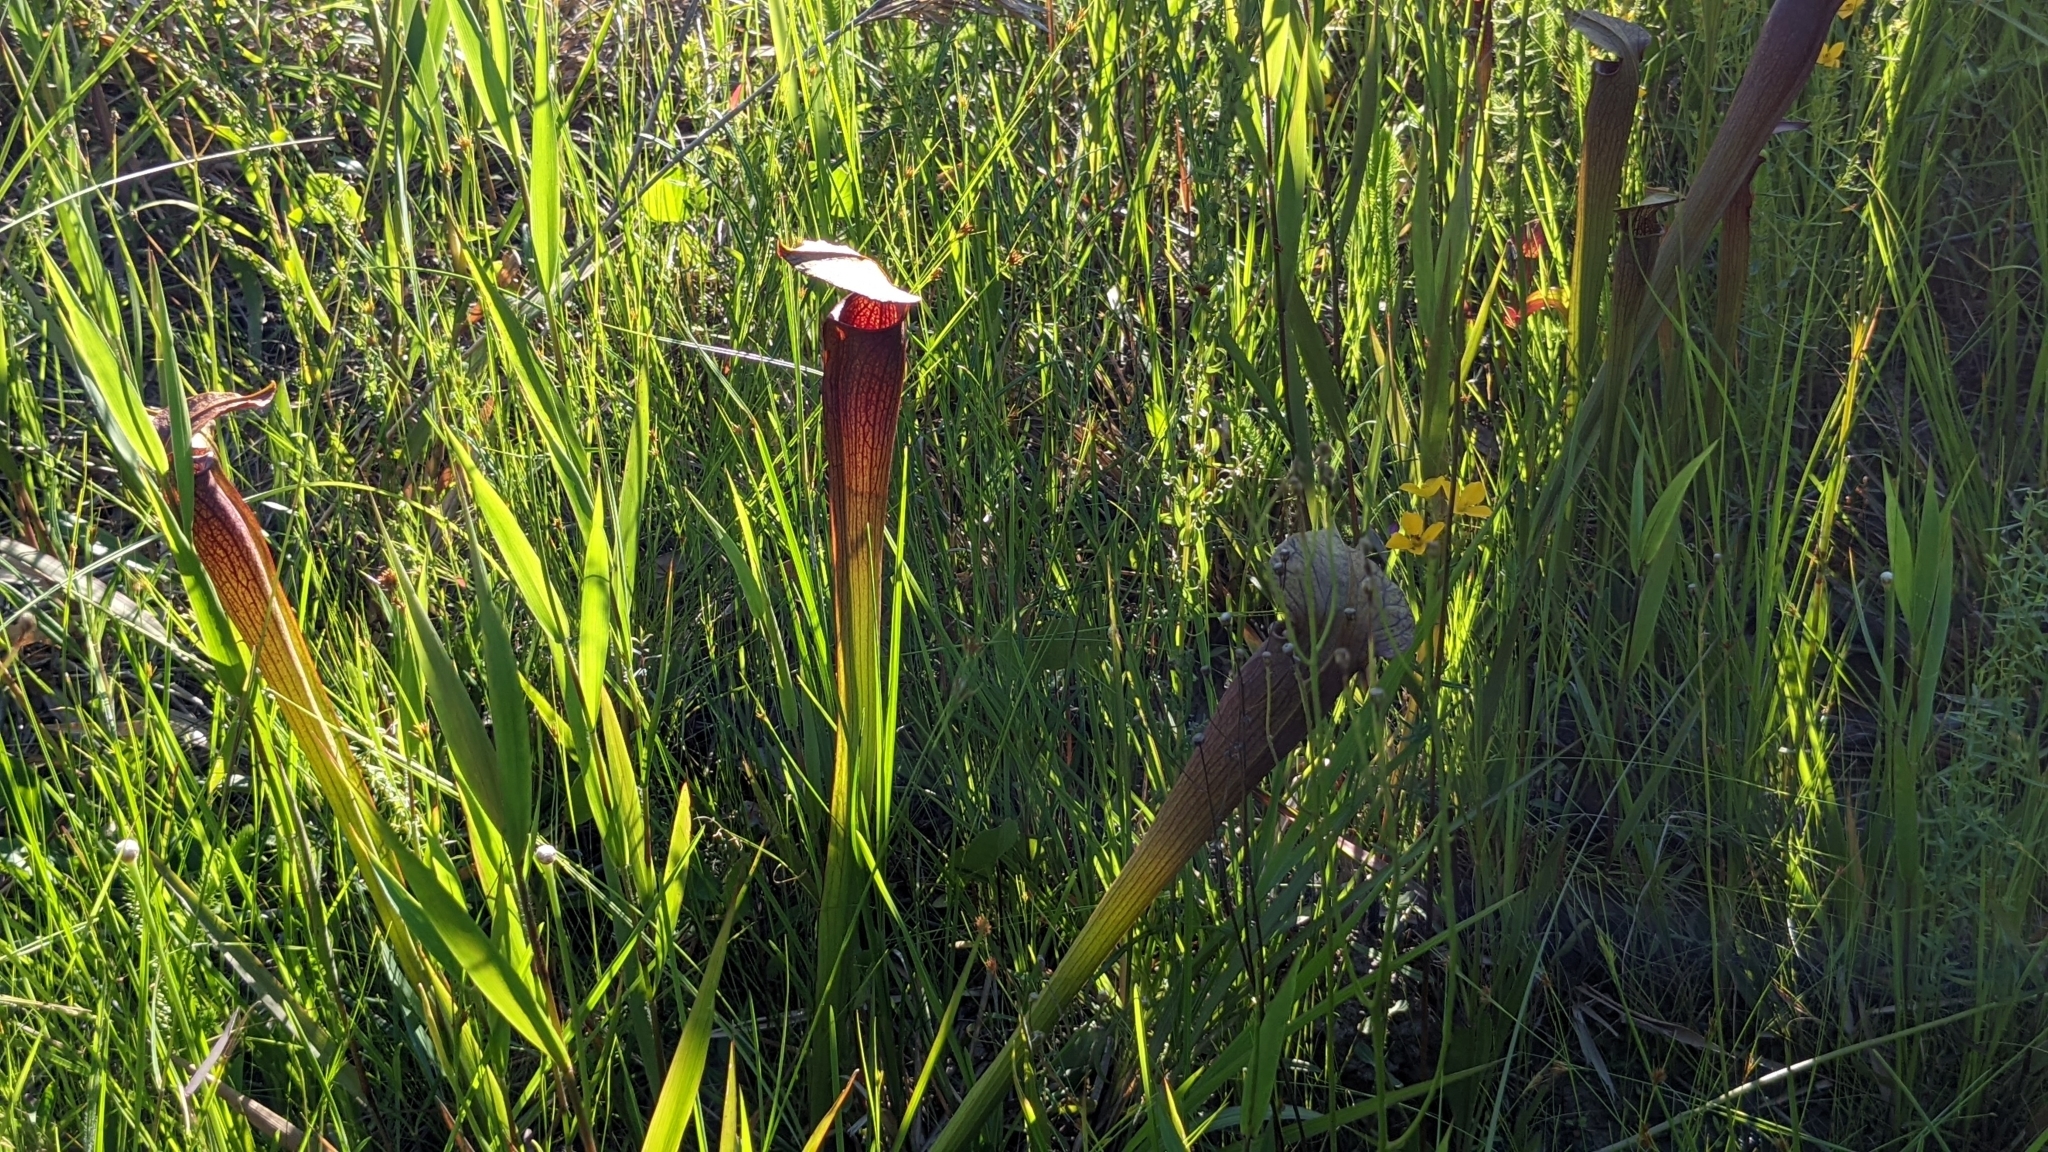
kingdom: Plantae
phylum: Tracheophyta
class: Magnoliopsida
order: Ericales
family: Sarraceniaceae
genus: Sarracenia
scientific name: Sarracenia alata
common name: Yellow trumpets
